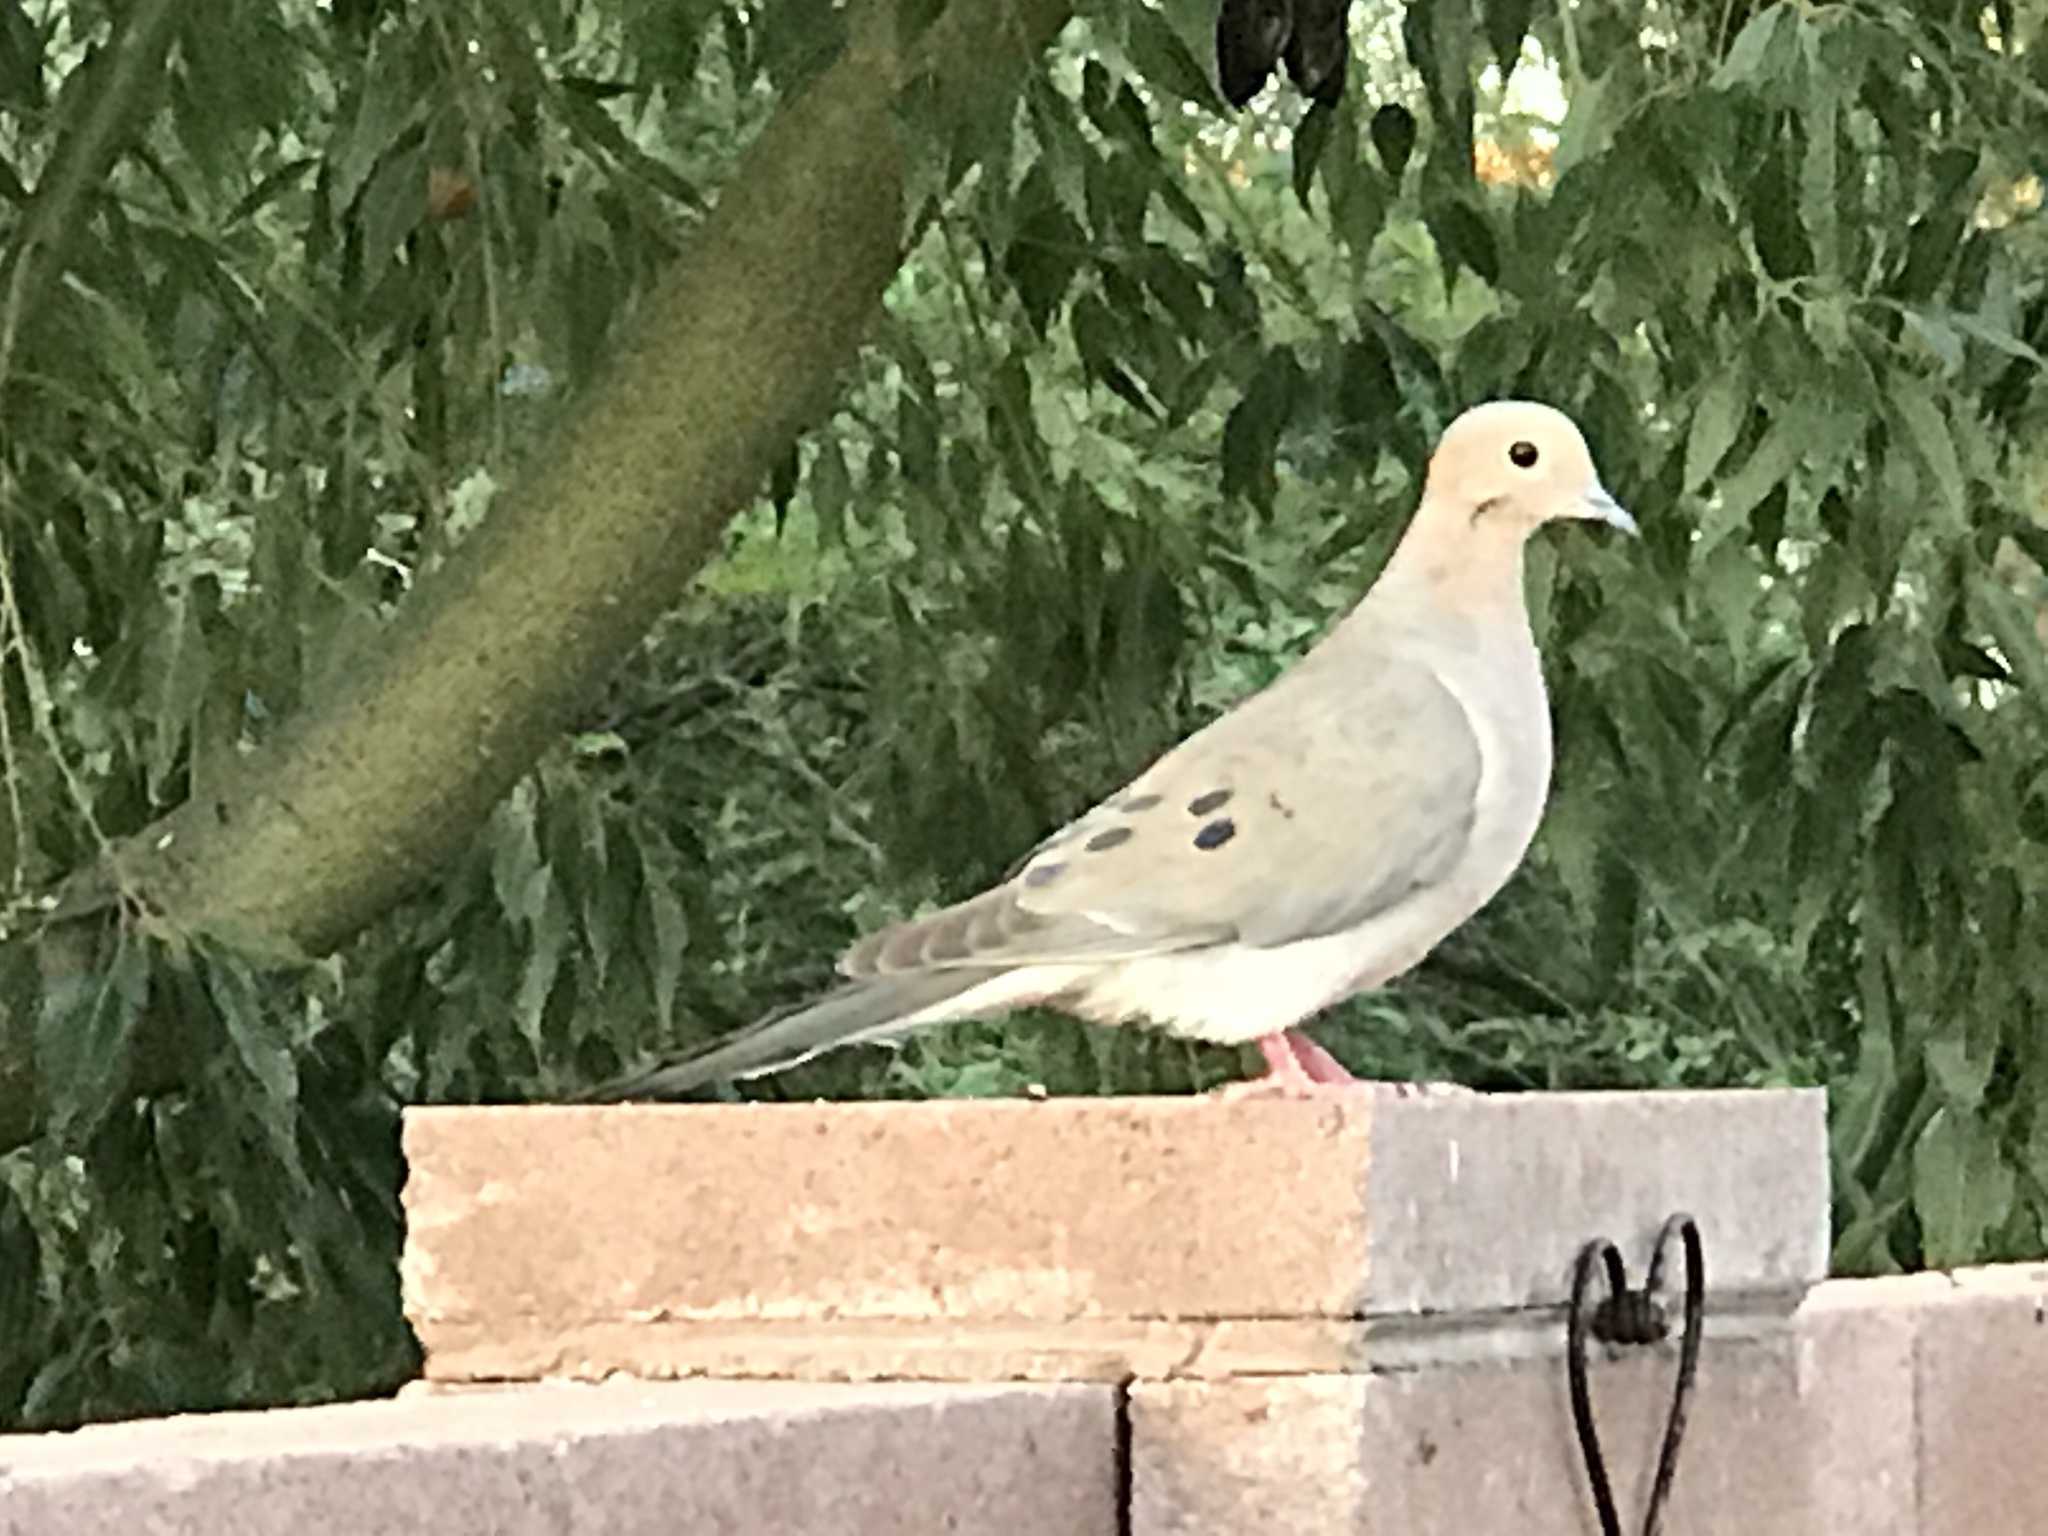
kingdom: Animalia
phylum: Chordata
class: Aves
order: Columbiformes
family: Columbidae
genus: Zenaida
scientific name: Zenaida macroura
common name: Mourning dove
